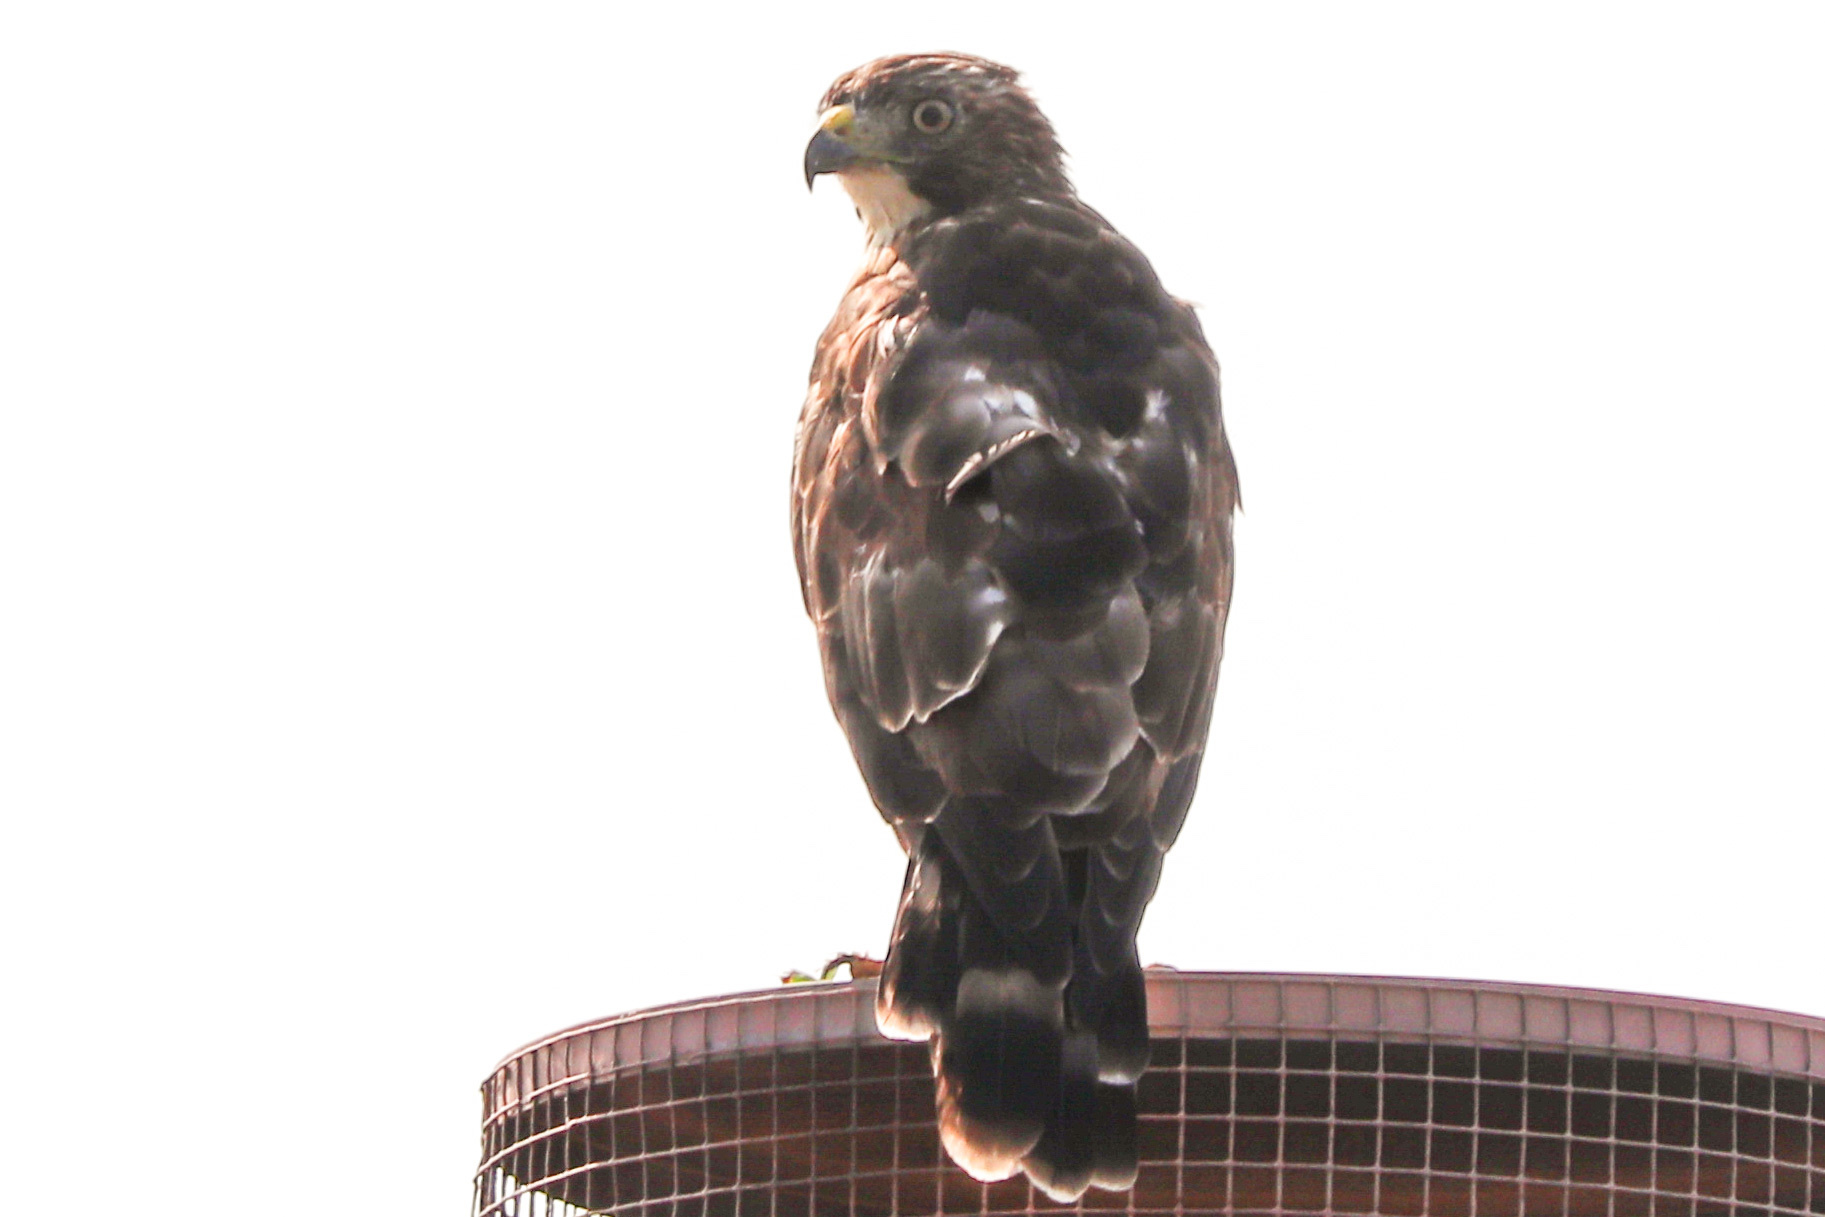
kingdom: Animalia
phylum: Chordata
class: Aves
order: Accipitriformes
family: Accipitridae
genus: Buteo
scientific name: Buteo platypterus
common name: Broad-winged hawk
